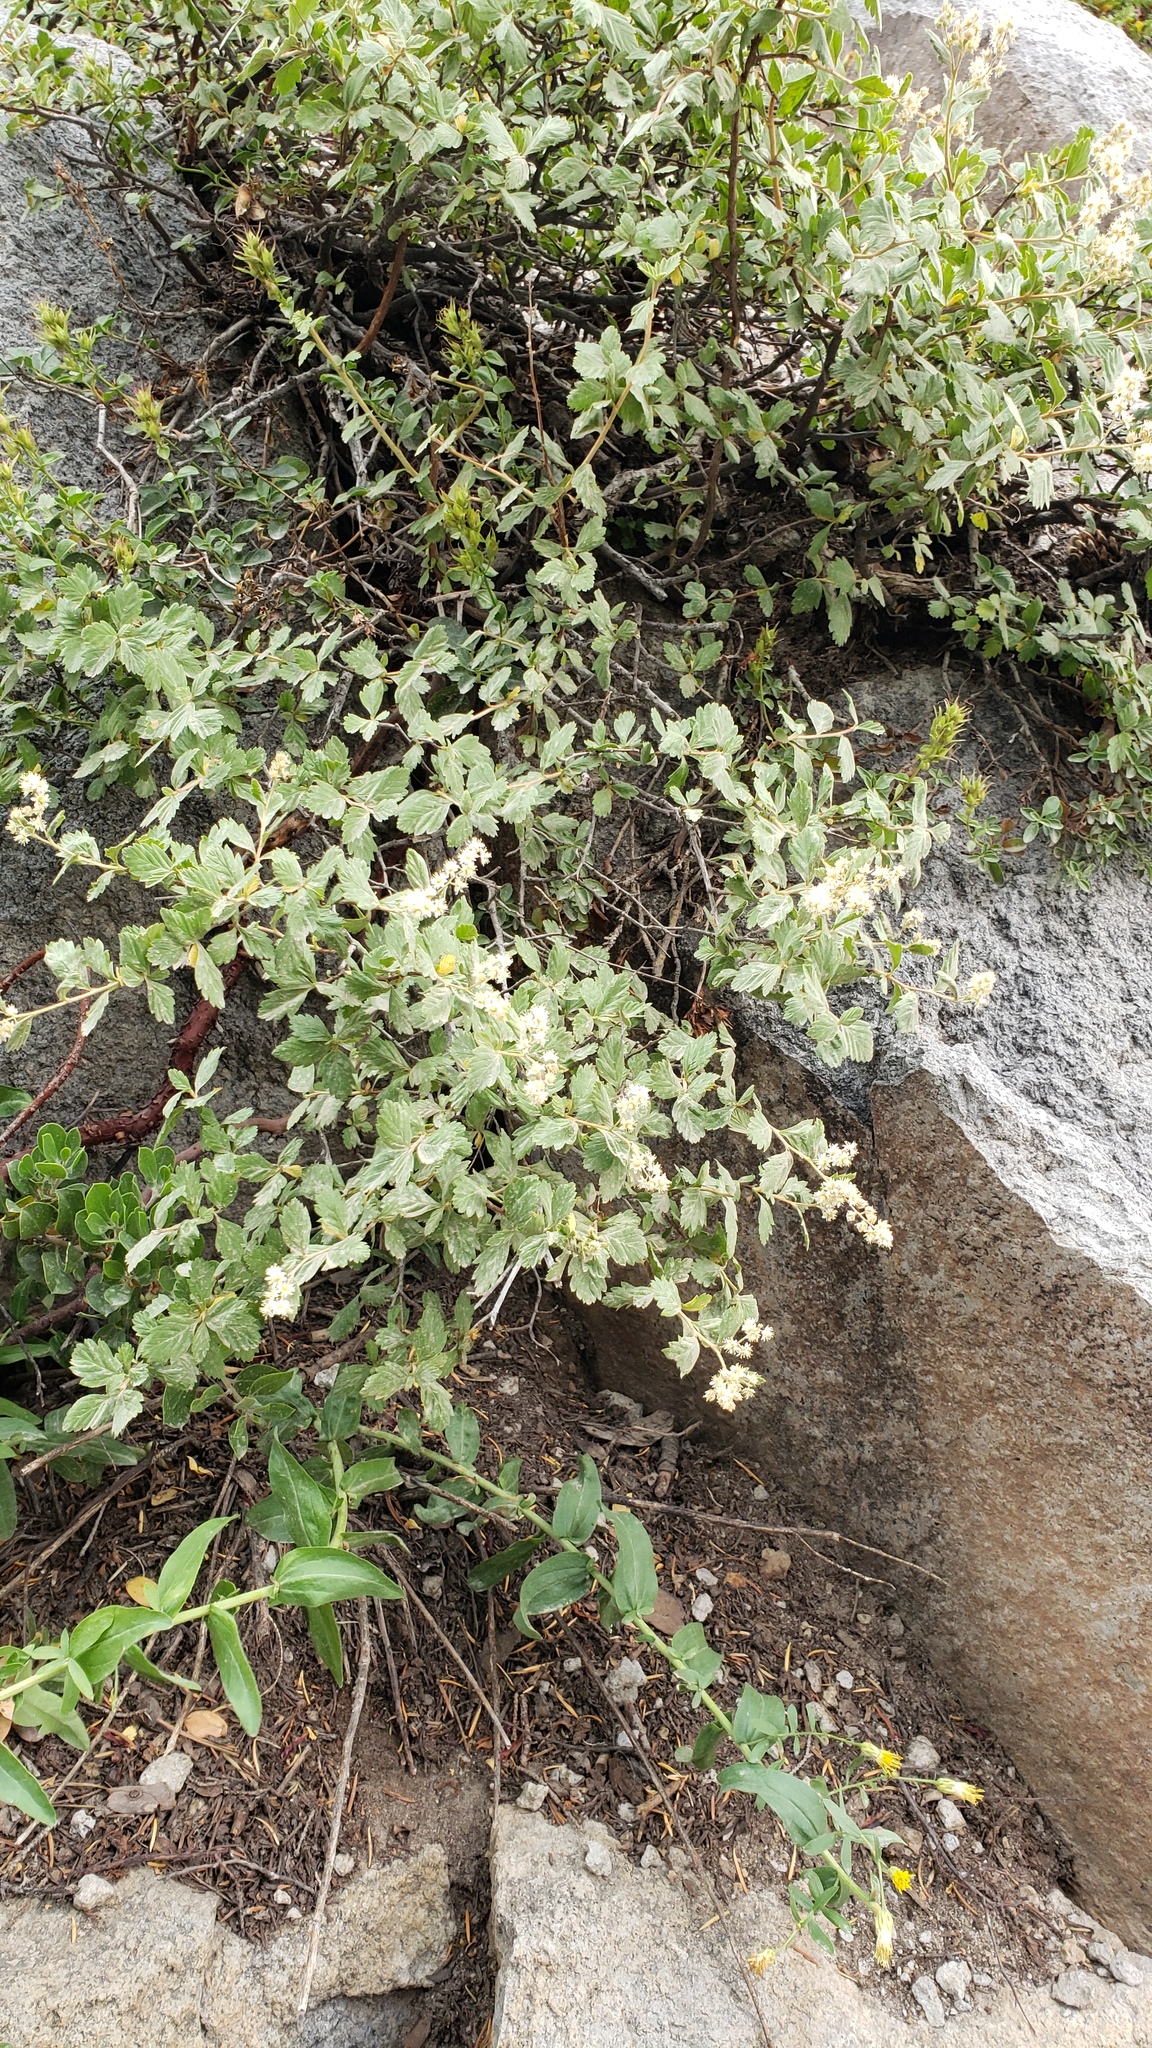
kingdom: Plantae
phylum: Tracheophyta
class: Magnoliopsida
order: Rosales
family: Rosaceae
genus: Holodiscus
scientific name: Holodiscus discolor
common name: Oceanspray
